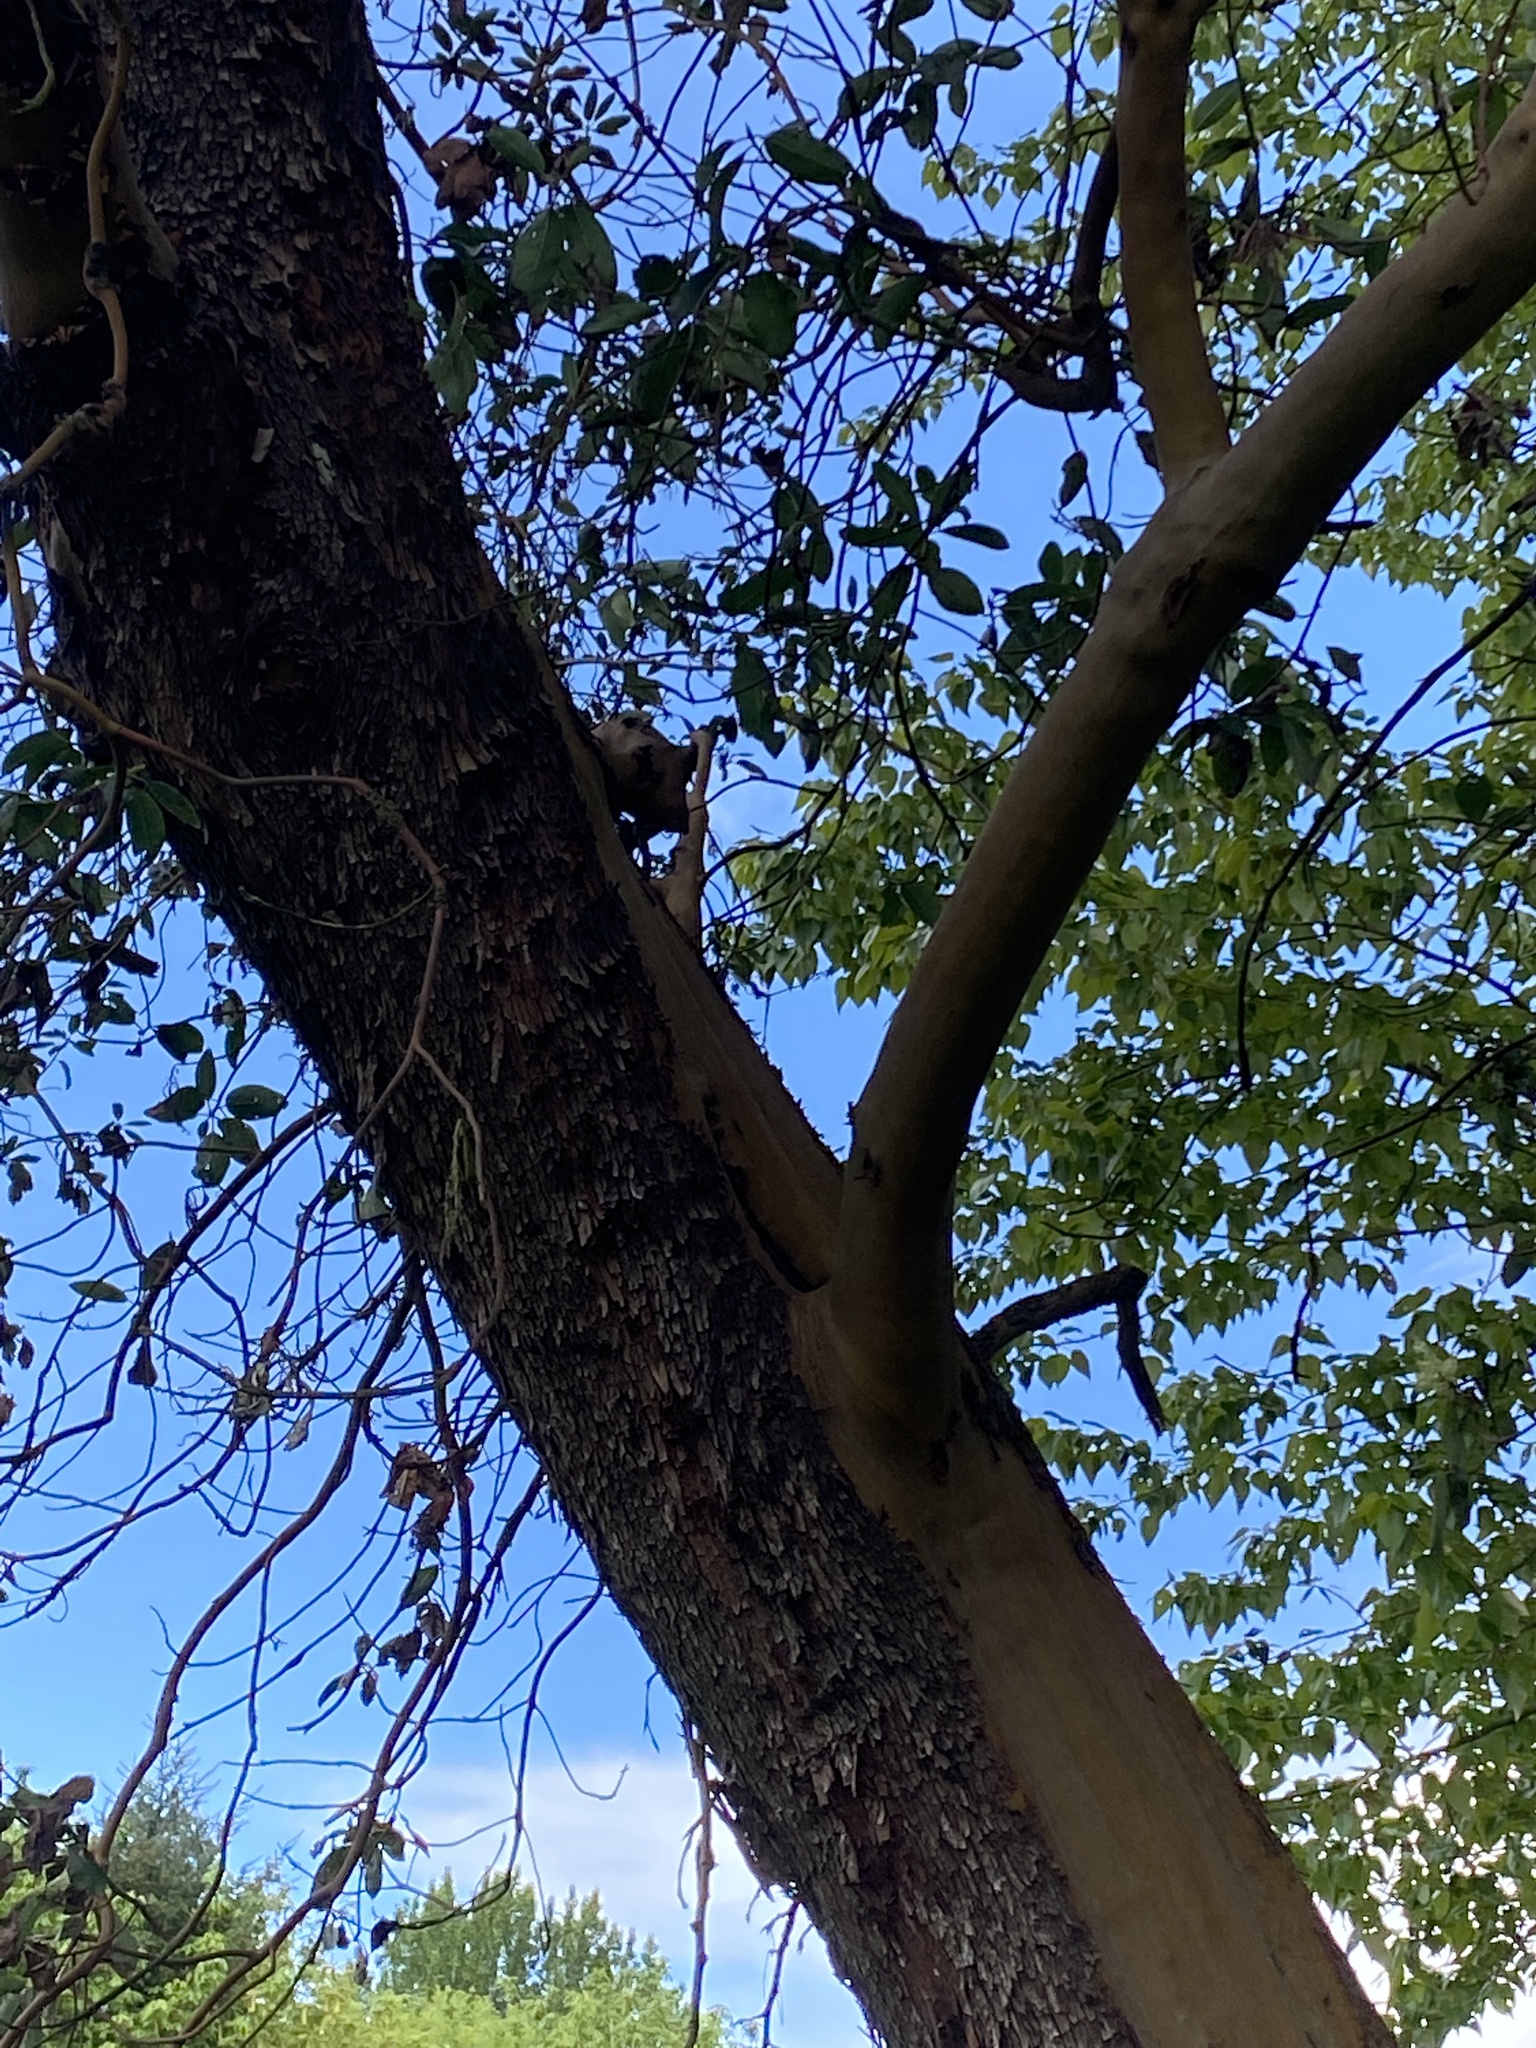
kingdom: Plantae
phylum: Tracheophyta
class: Magnoliopsida
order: Ericales
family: Ericaceae
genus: Arbutus
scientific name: Arbutus menziesii
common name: Pacific madrone
